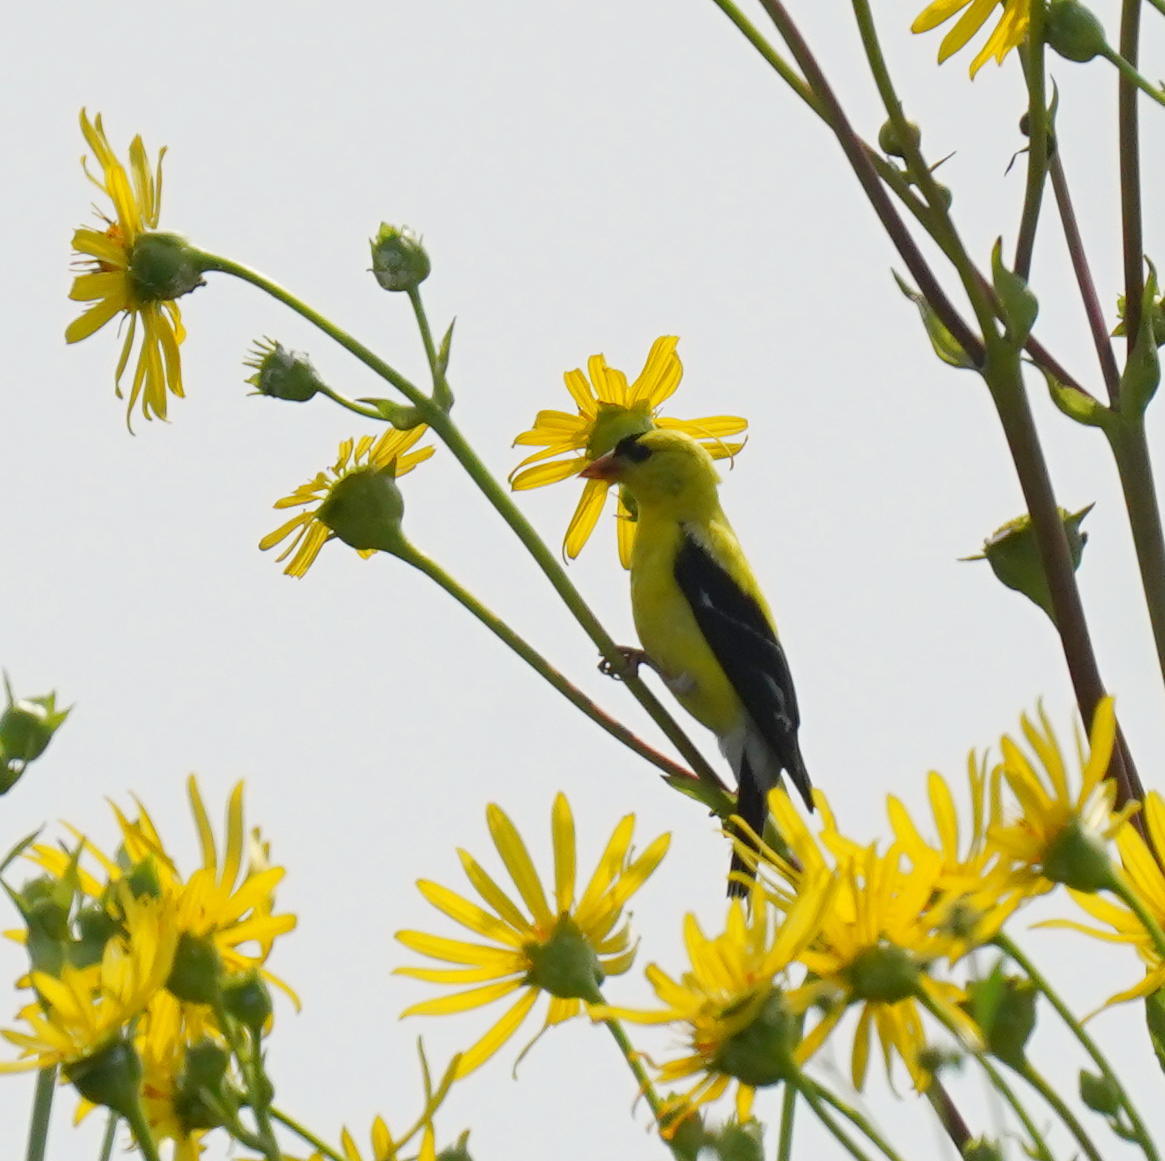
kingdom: Animalia
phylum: Chordata
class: Aves
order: Passeriformes
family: Fringillidae
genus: Spinus
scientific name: Spinus tristis
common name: American goldfinch
